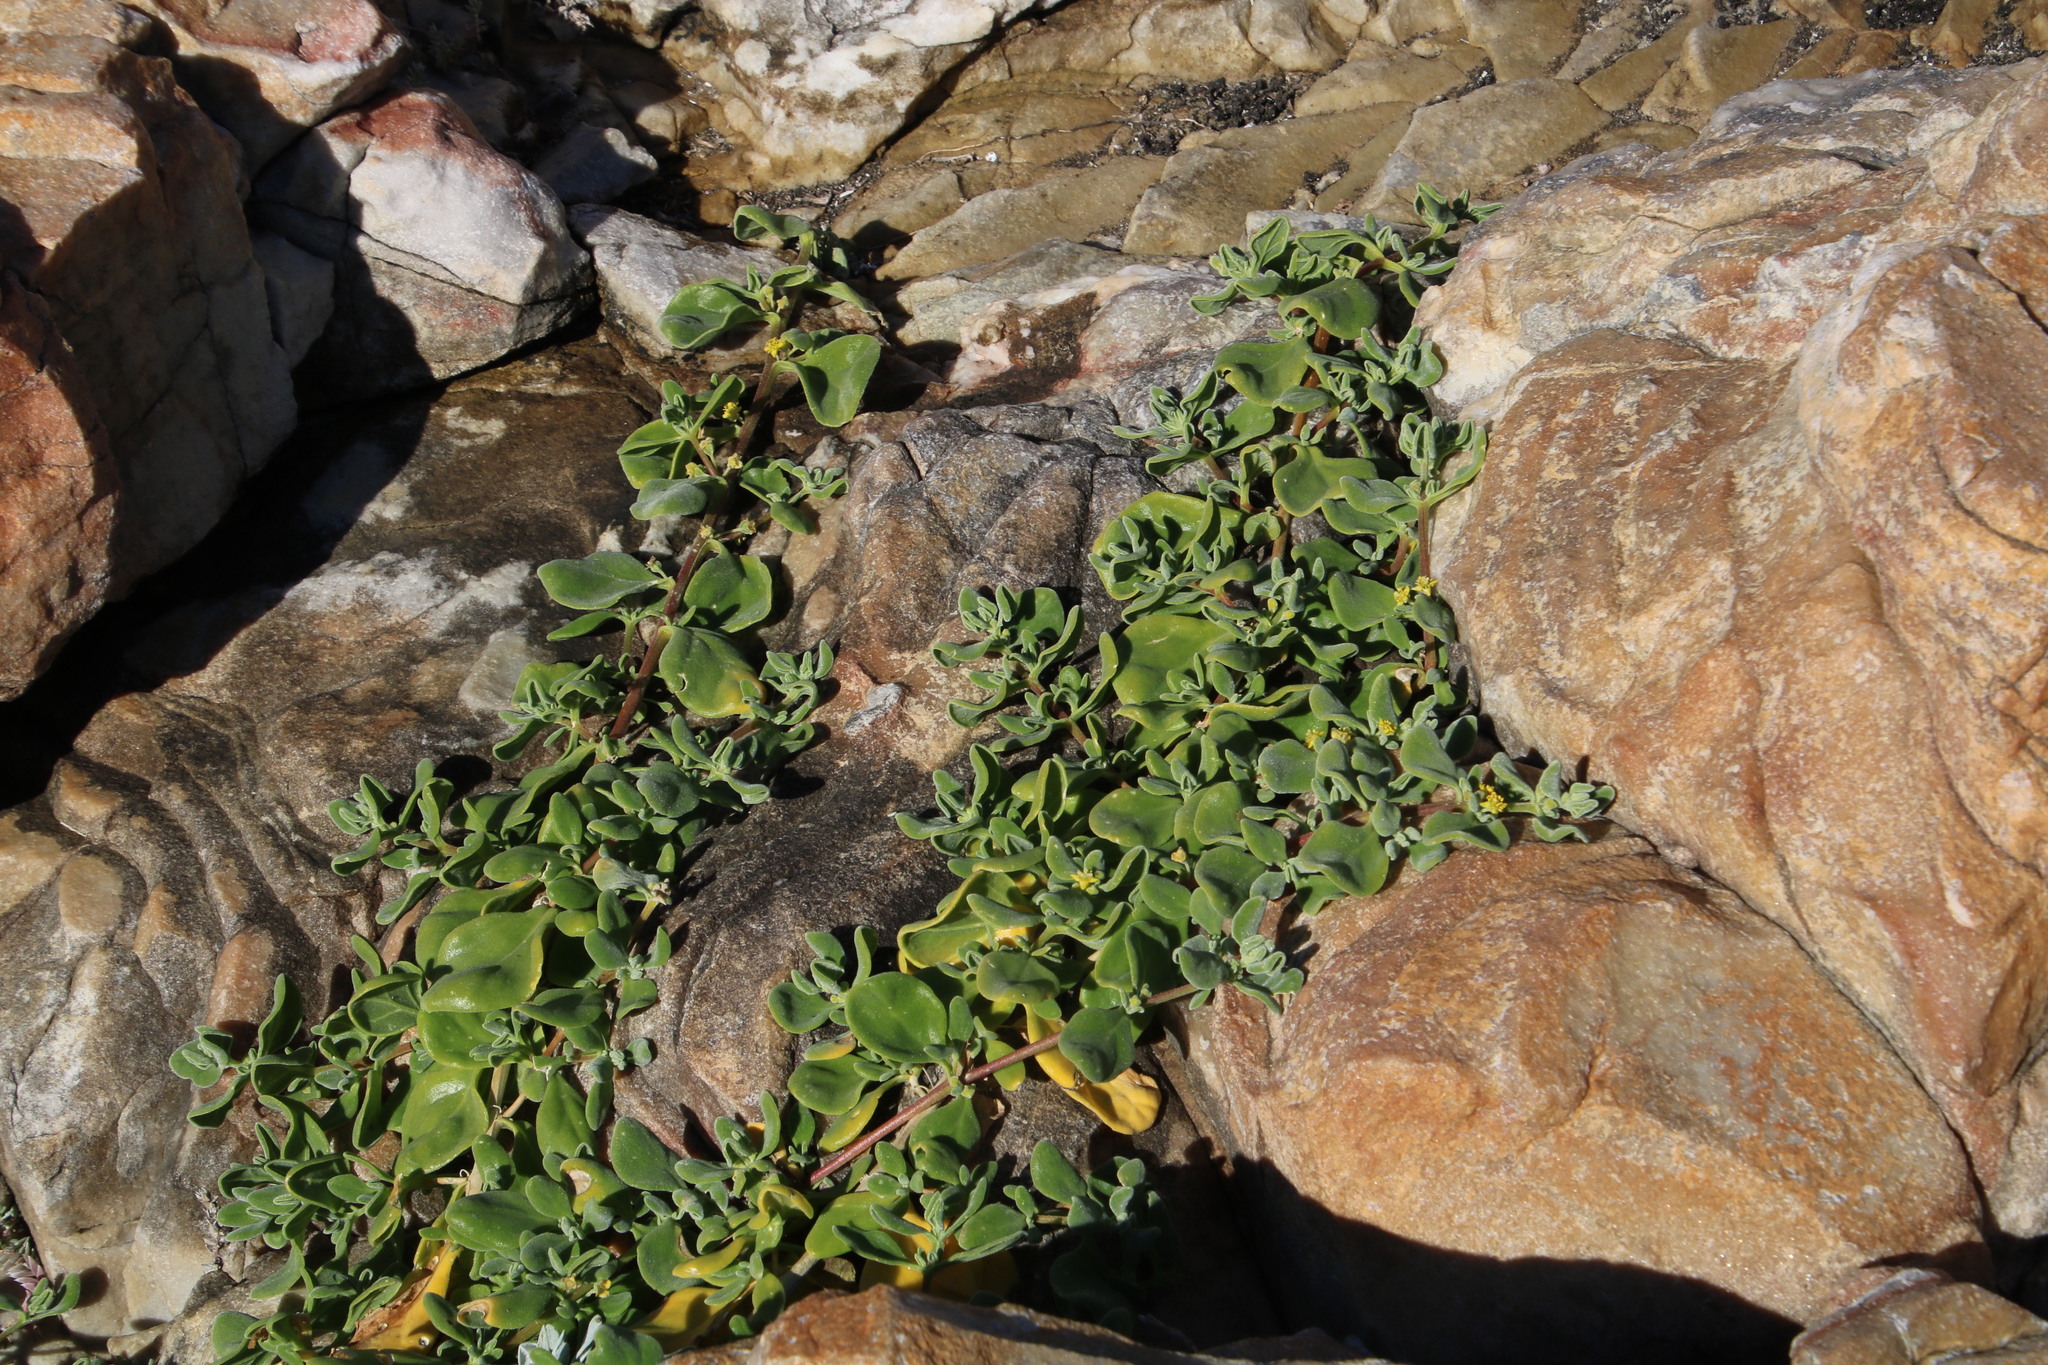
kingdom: Plantae
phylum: Tracheophyta
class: Magnoliopsida
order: Caryophyllales
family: Aizoaceae
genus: Tetragonia
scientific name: Tetragonia decumbens
